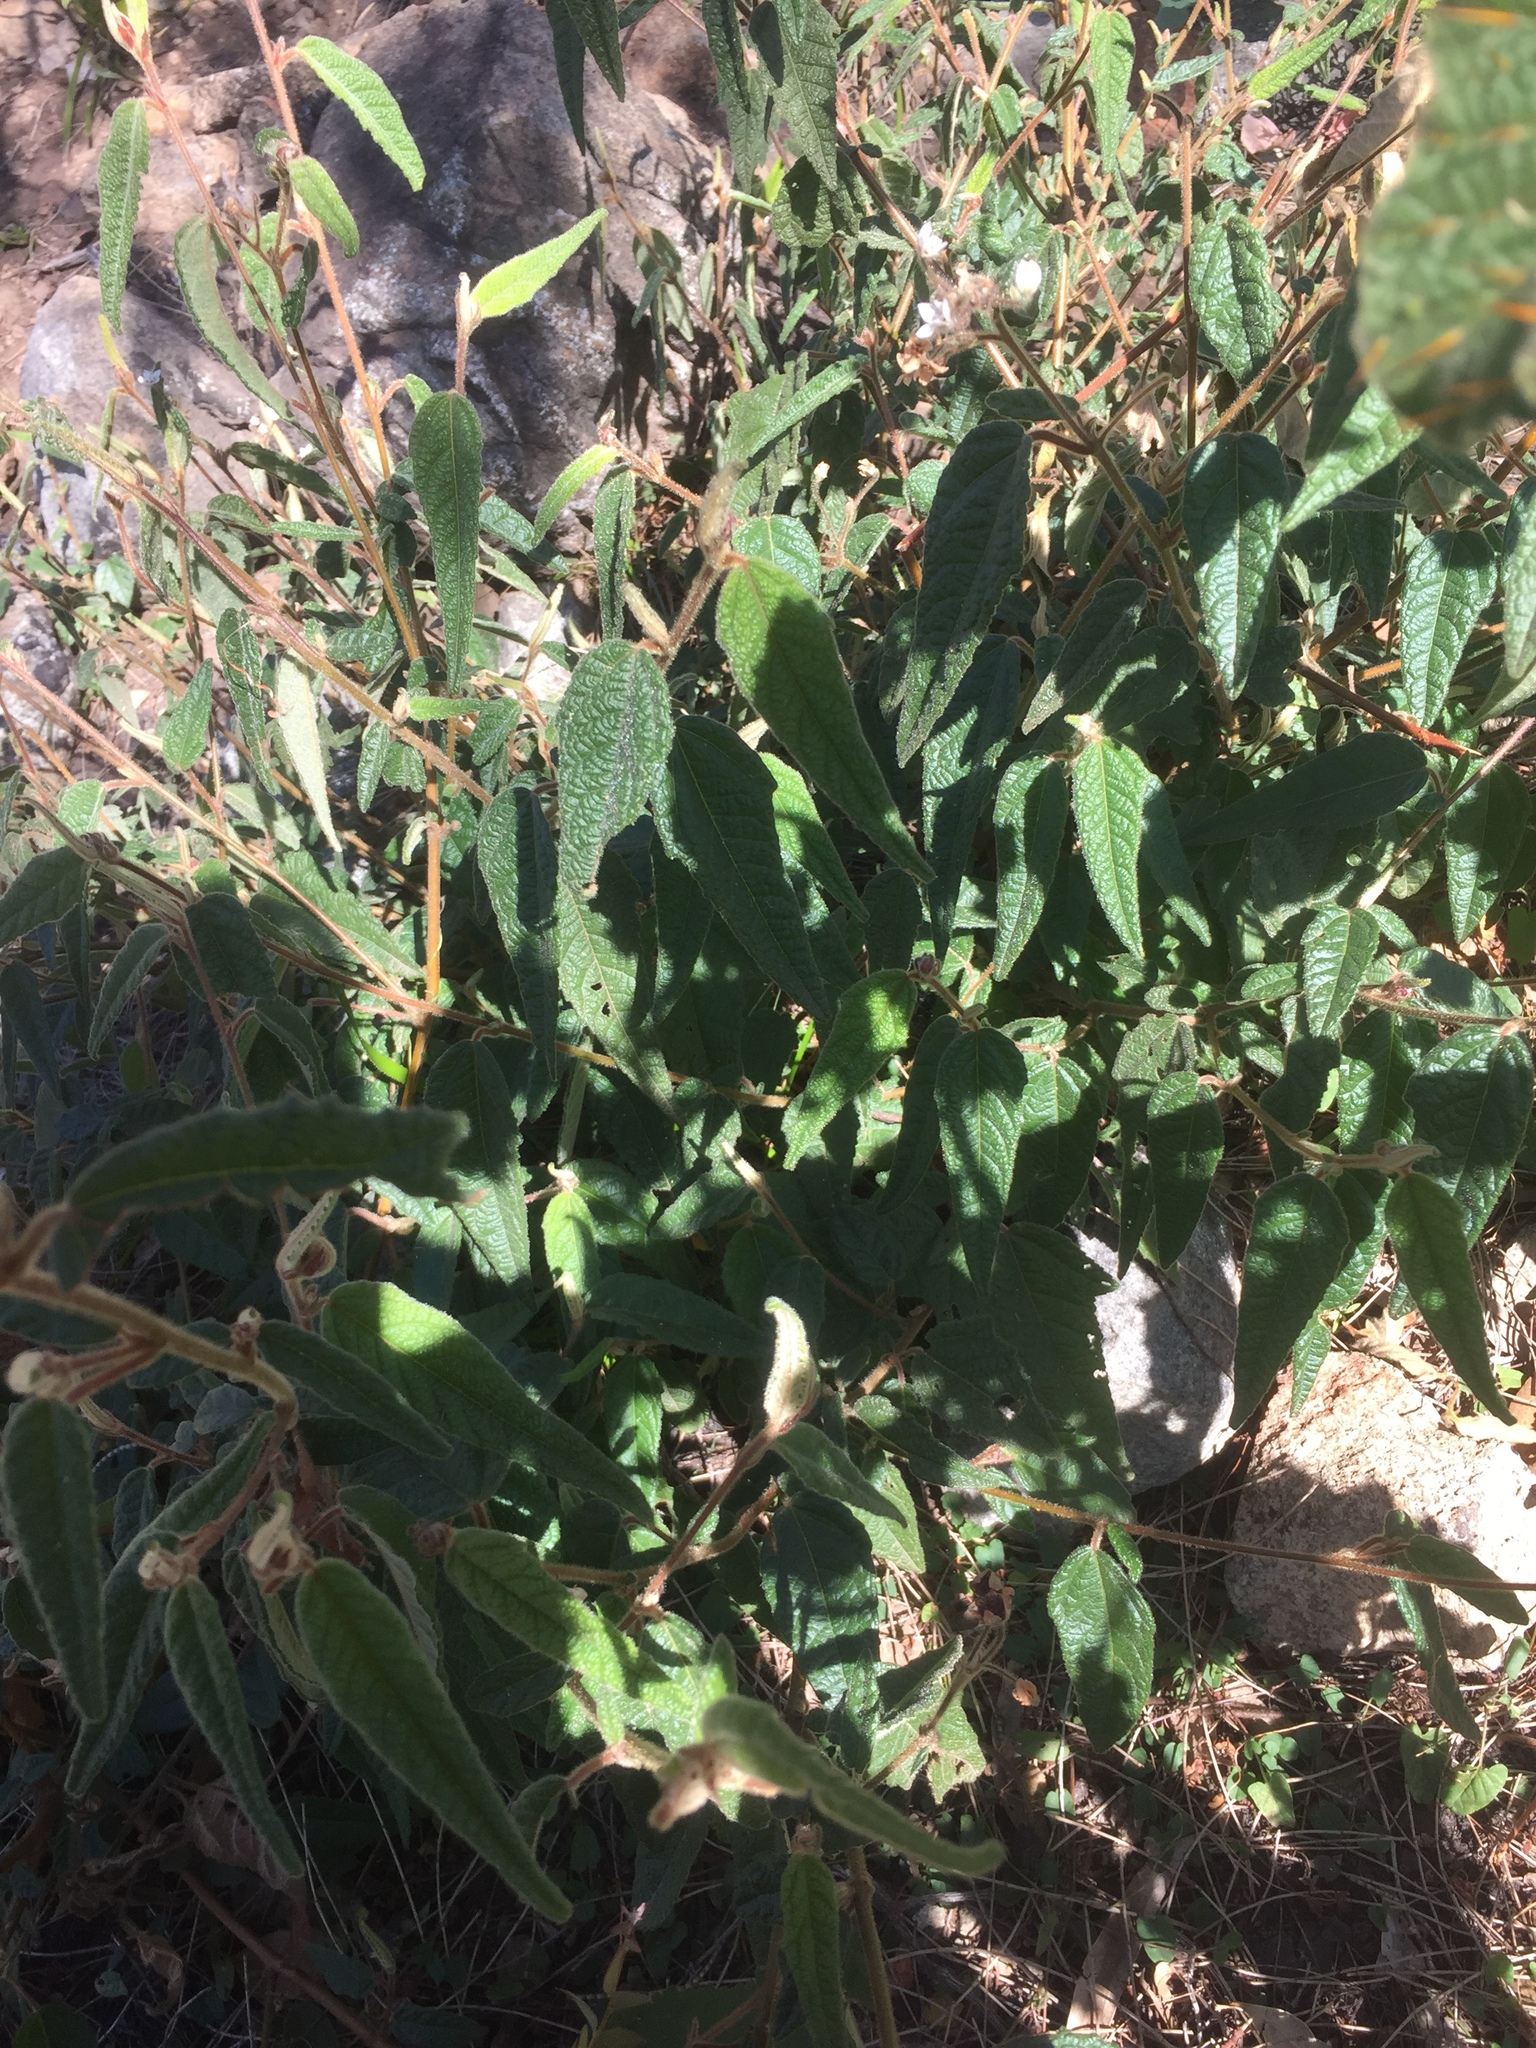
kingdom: Plantae
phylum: Tracheophyta
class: Magnoliopsida
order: Malvales
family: Malvaceae
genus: Commersonia
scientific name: Commersonia rugosa
